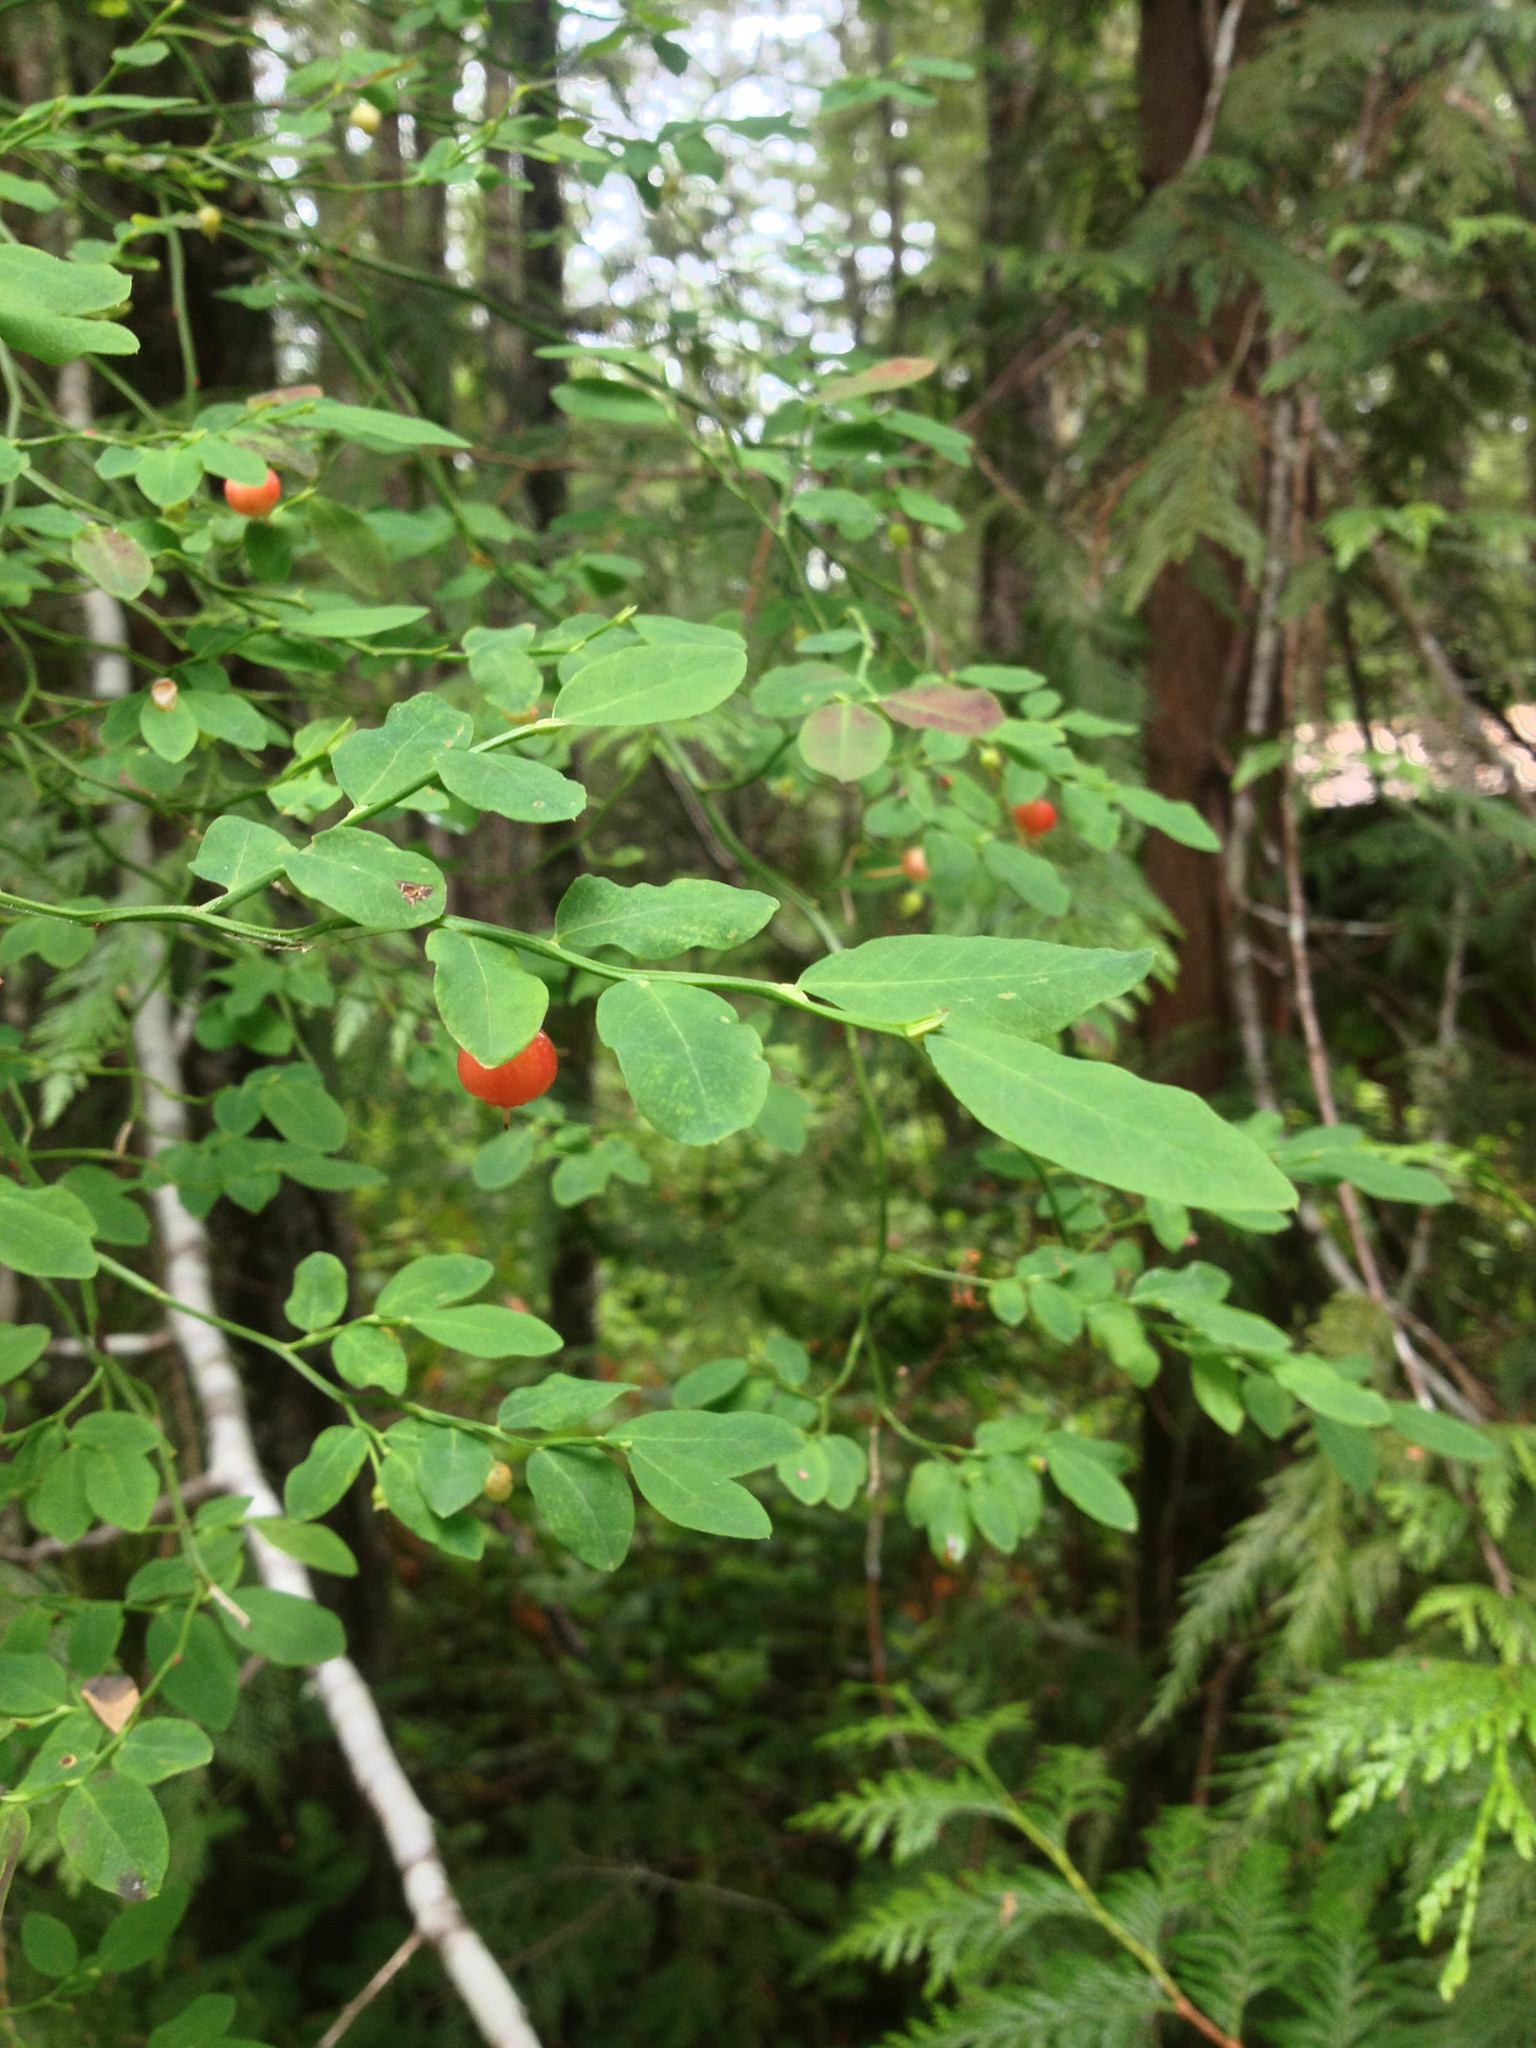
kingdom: Plantae
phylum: Tracheophyta
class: Magnoliopsida
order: Ericales
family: Ericaceae
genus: Vaccinium
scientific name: Vaccinium parvifolium
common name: Red-huckleberry
